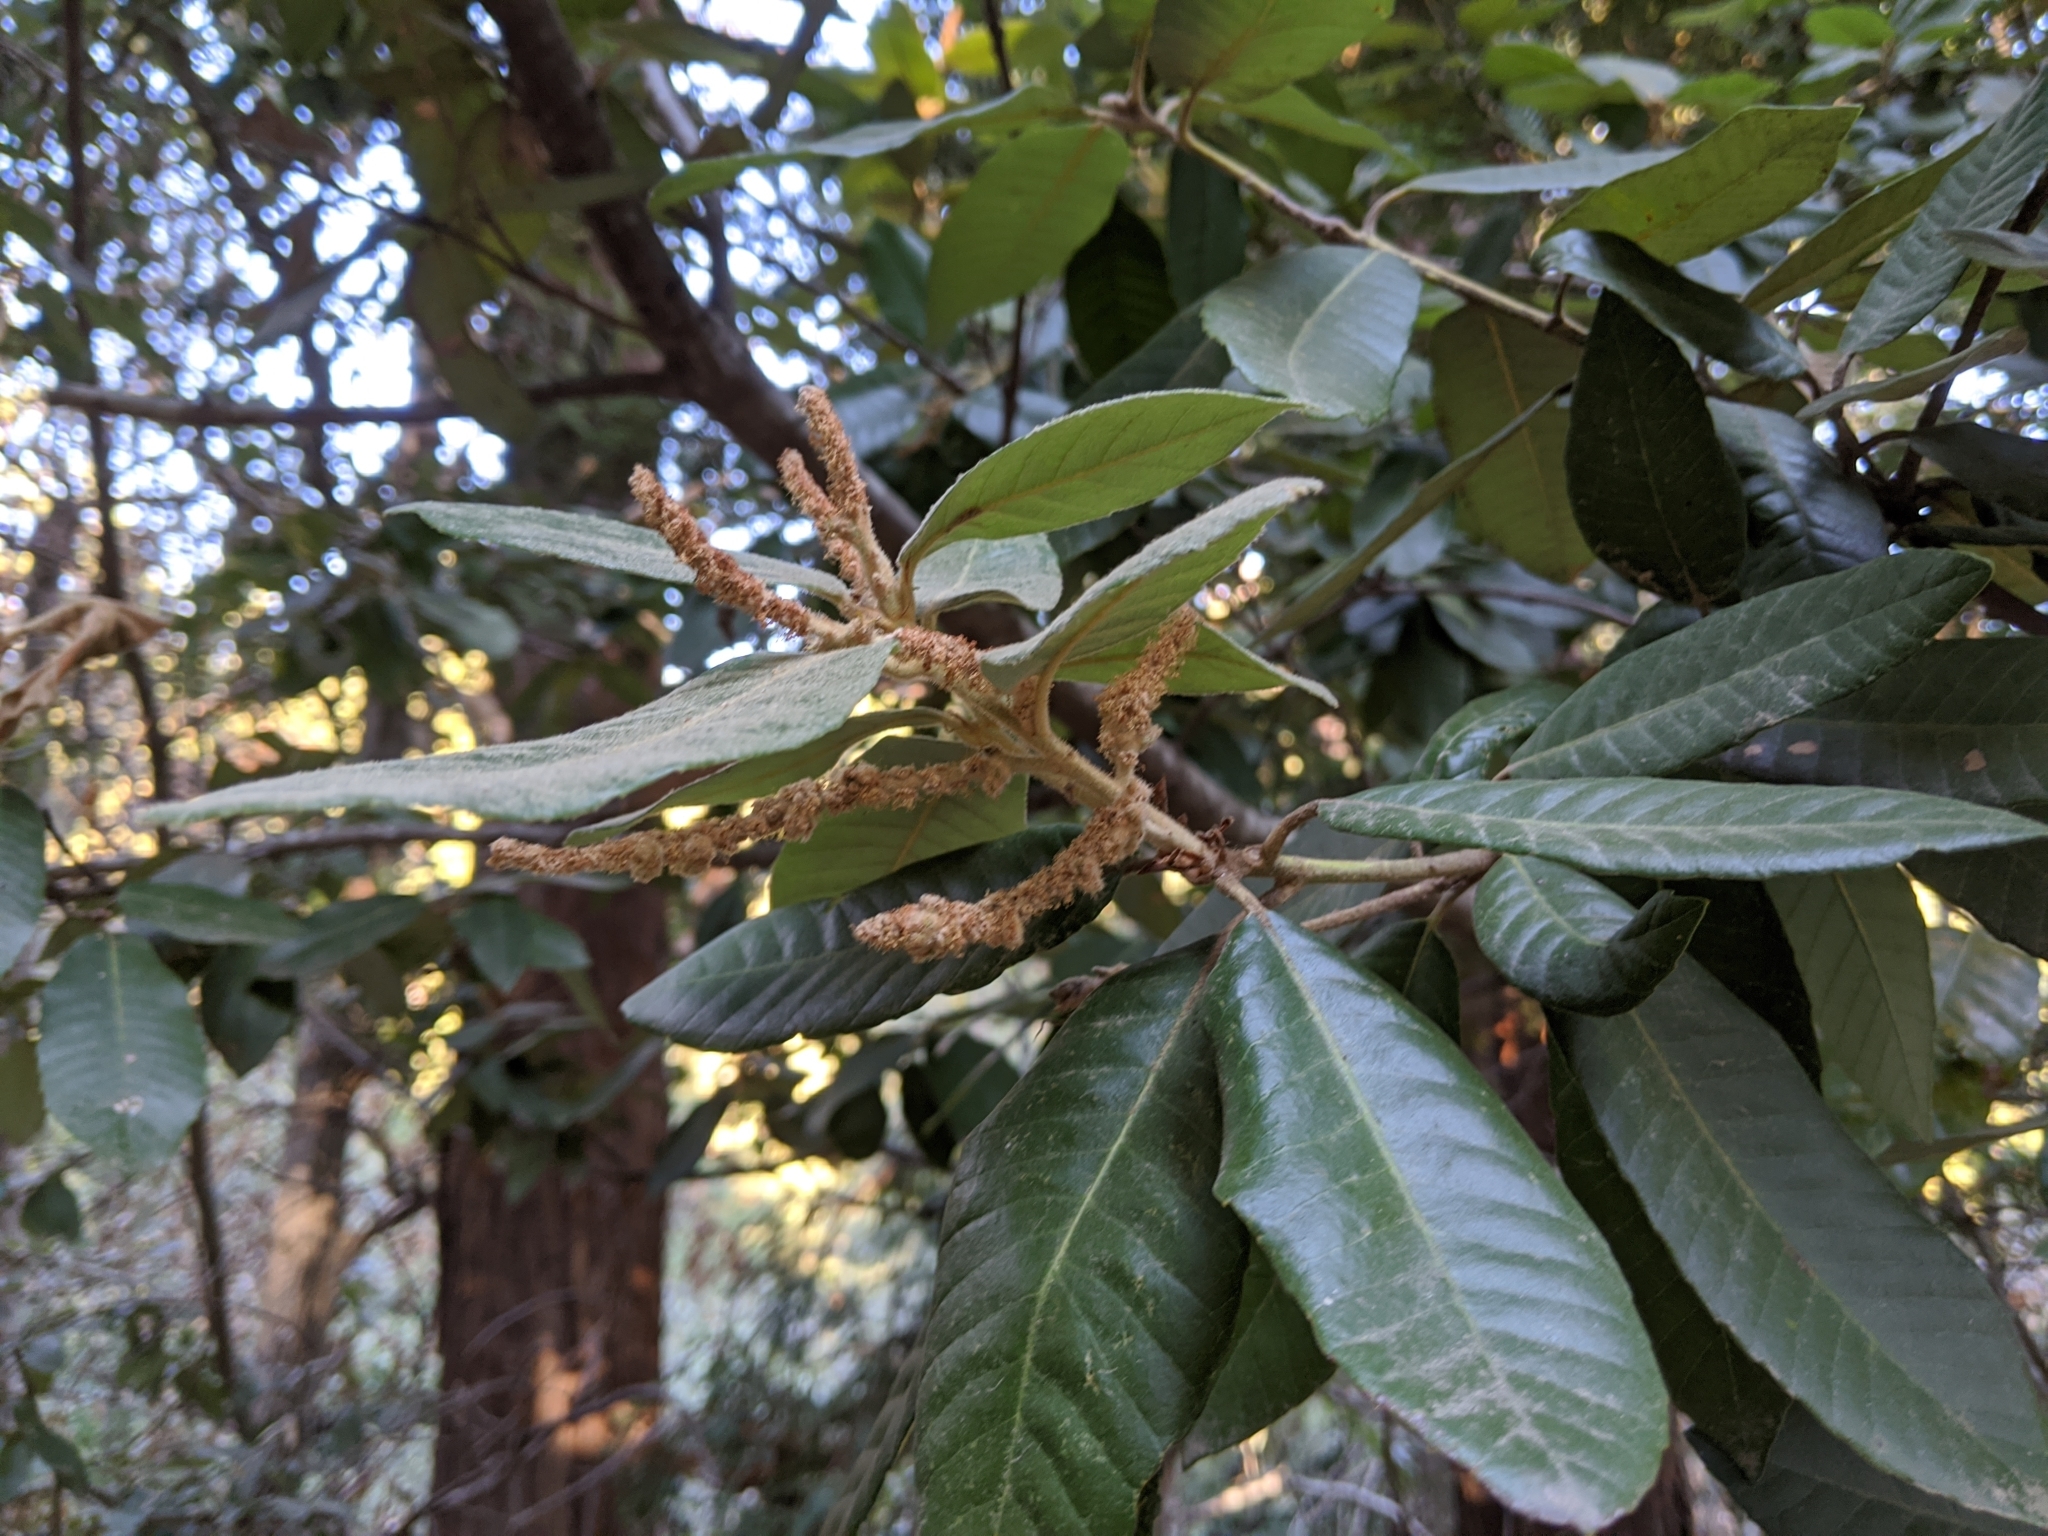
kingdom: Plantae
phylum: Tracheophyta
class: Magnoliopsida
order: Fagales
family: Fagaceae
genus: Notholithocarpus
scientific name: Notholithocarpus densiflorus
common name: Tan bark oak
